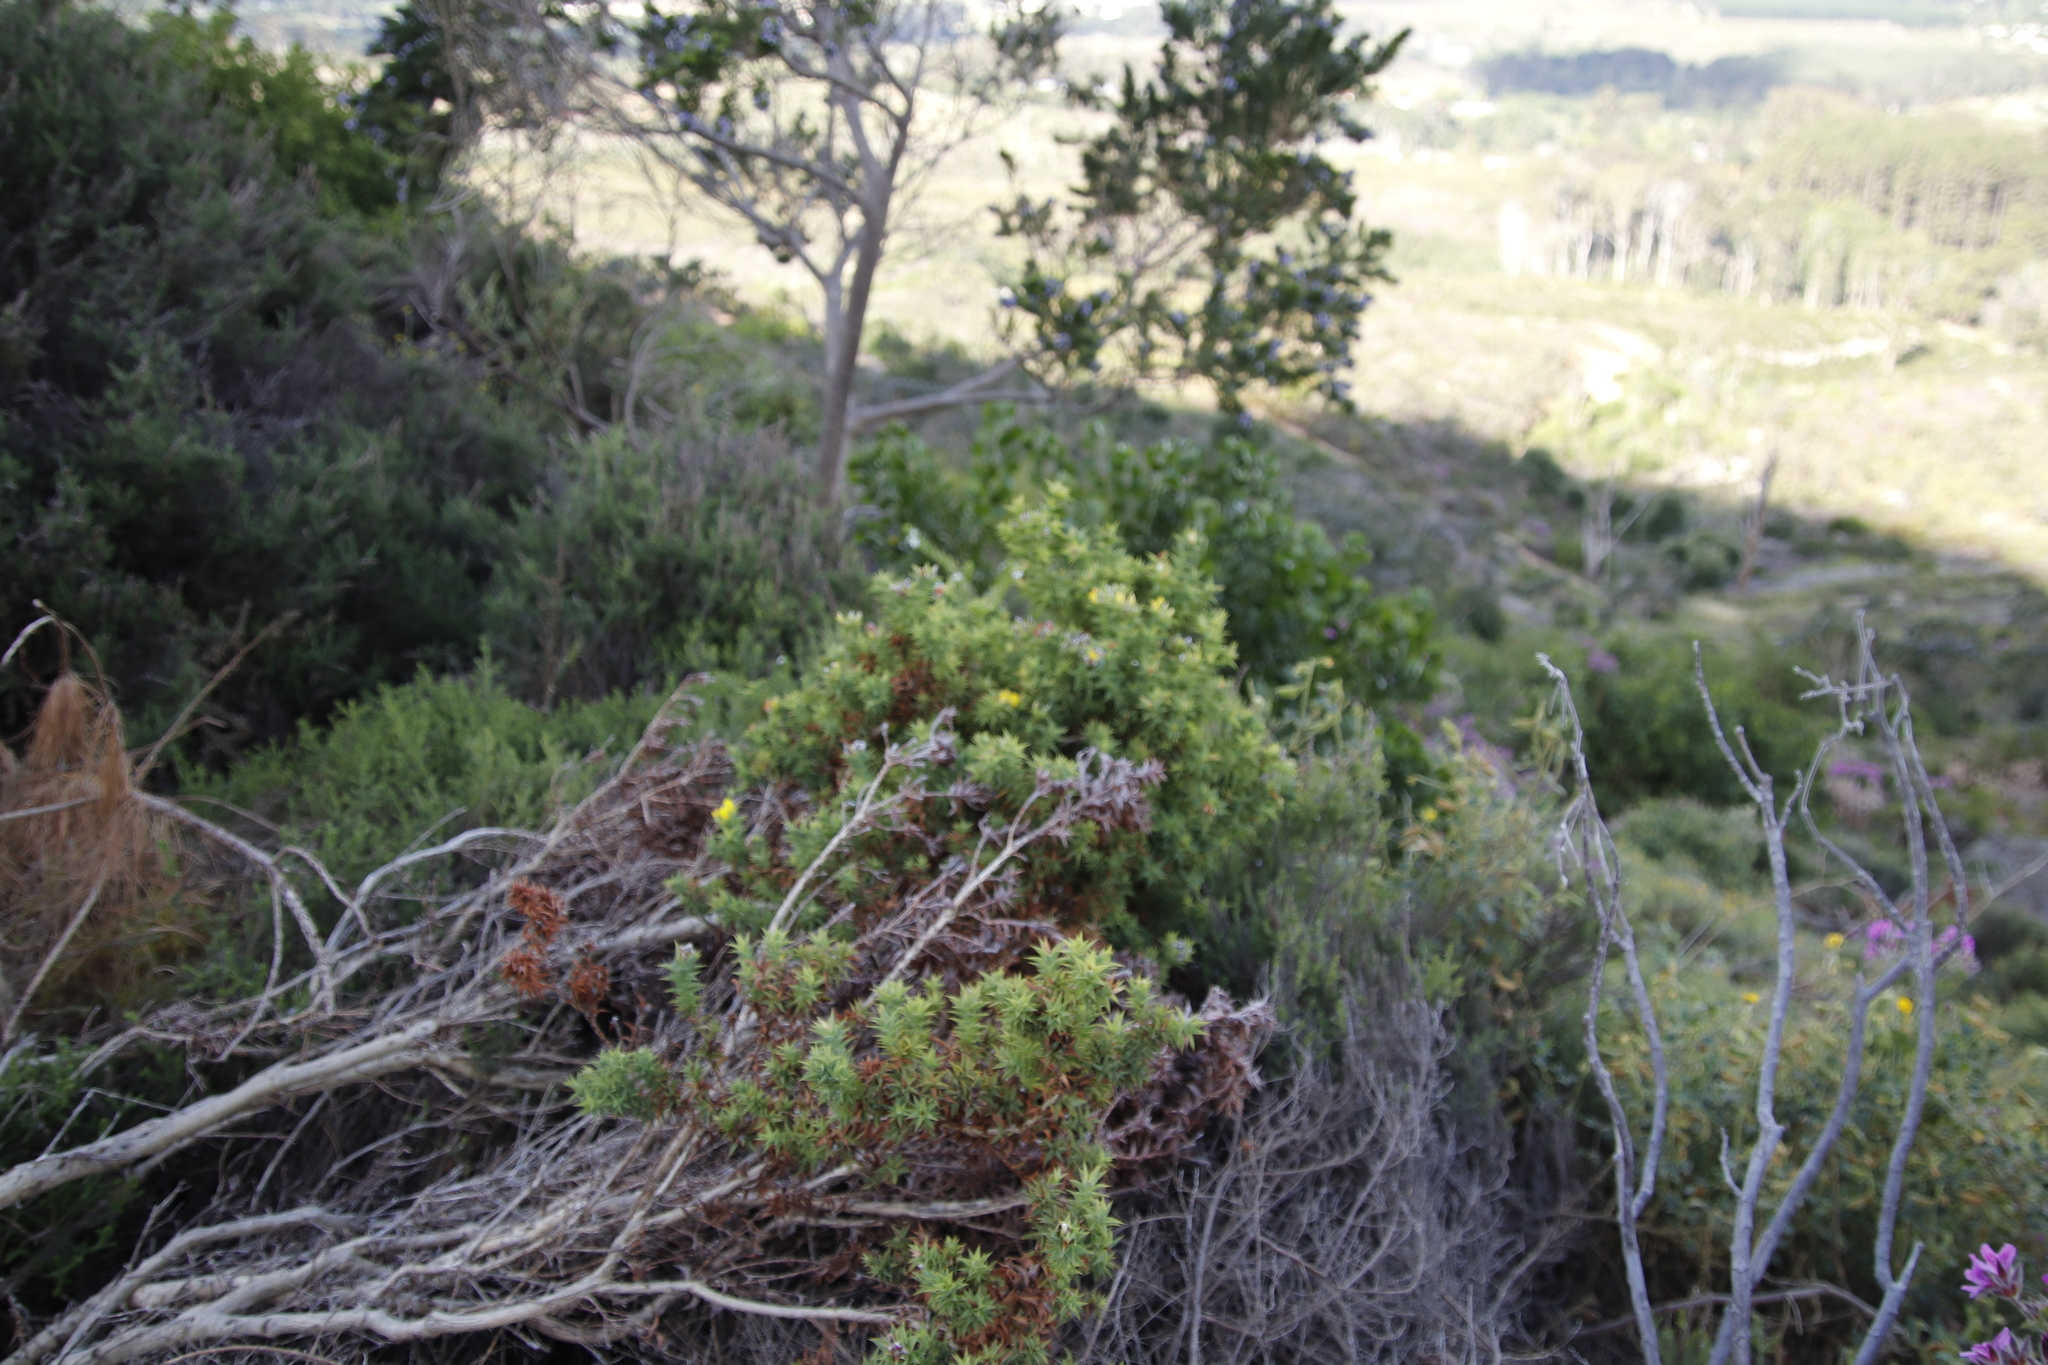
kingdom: Plantae
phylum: Tracheophyta
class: Magnoliopsida
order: Fabales
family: Fabaceae
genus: Aspalathus
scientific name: Aspalathus cordata
